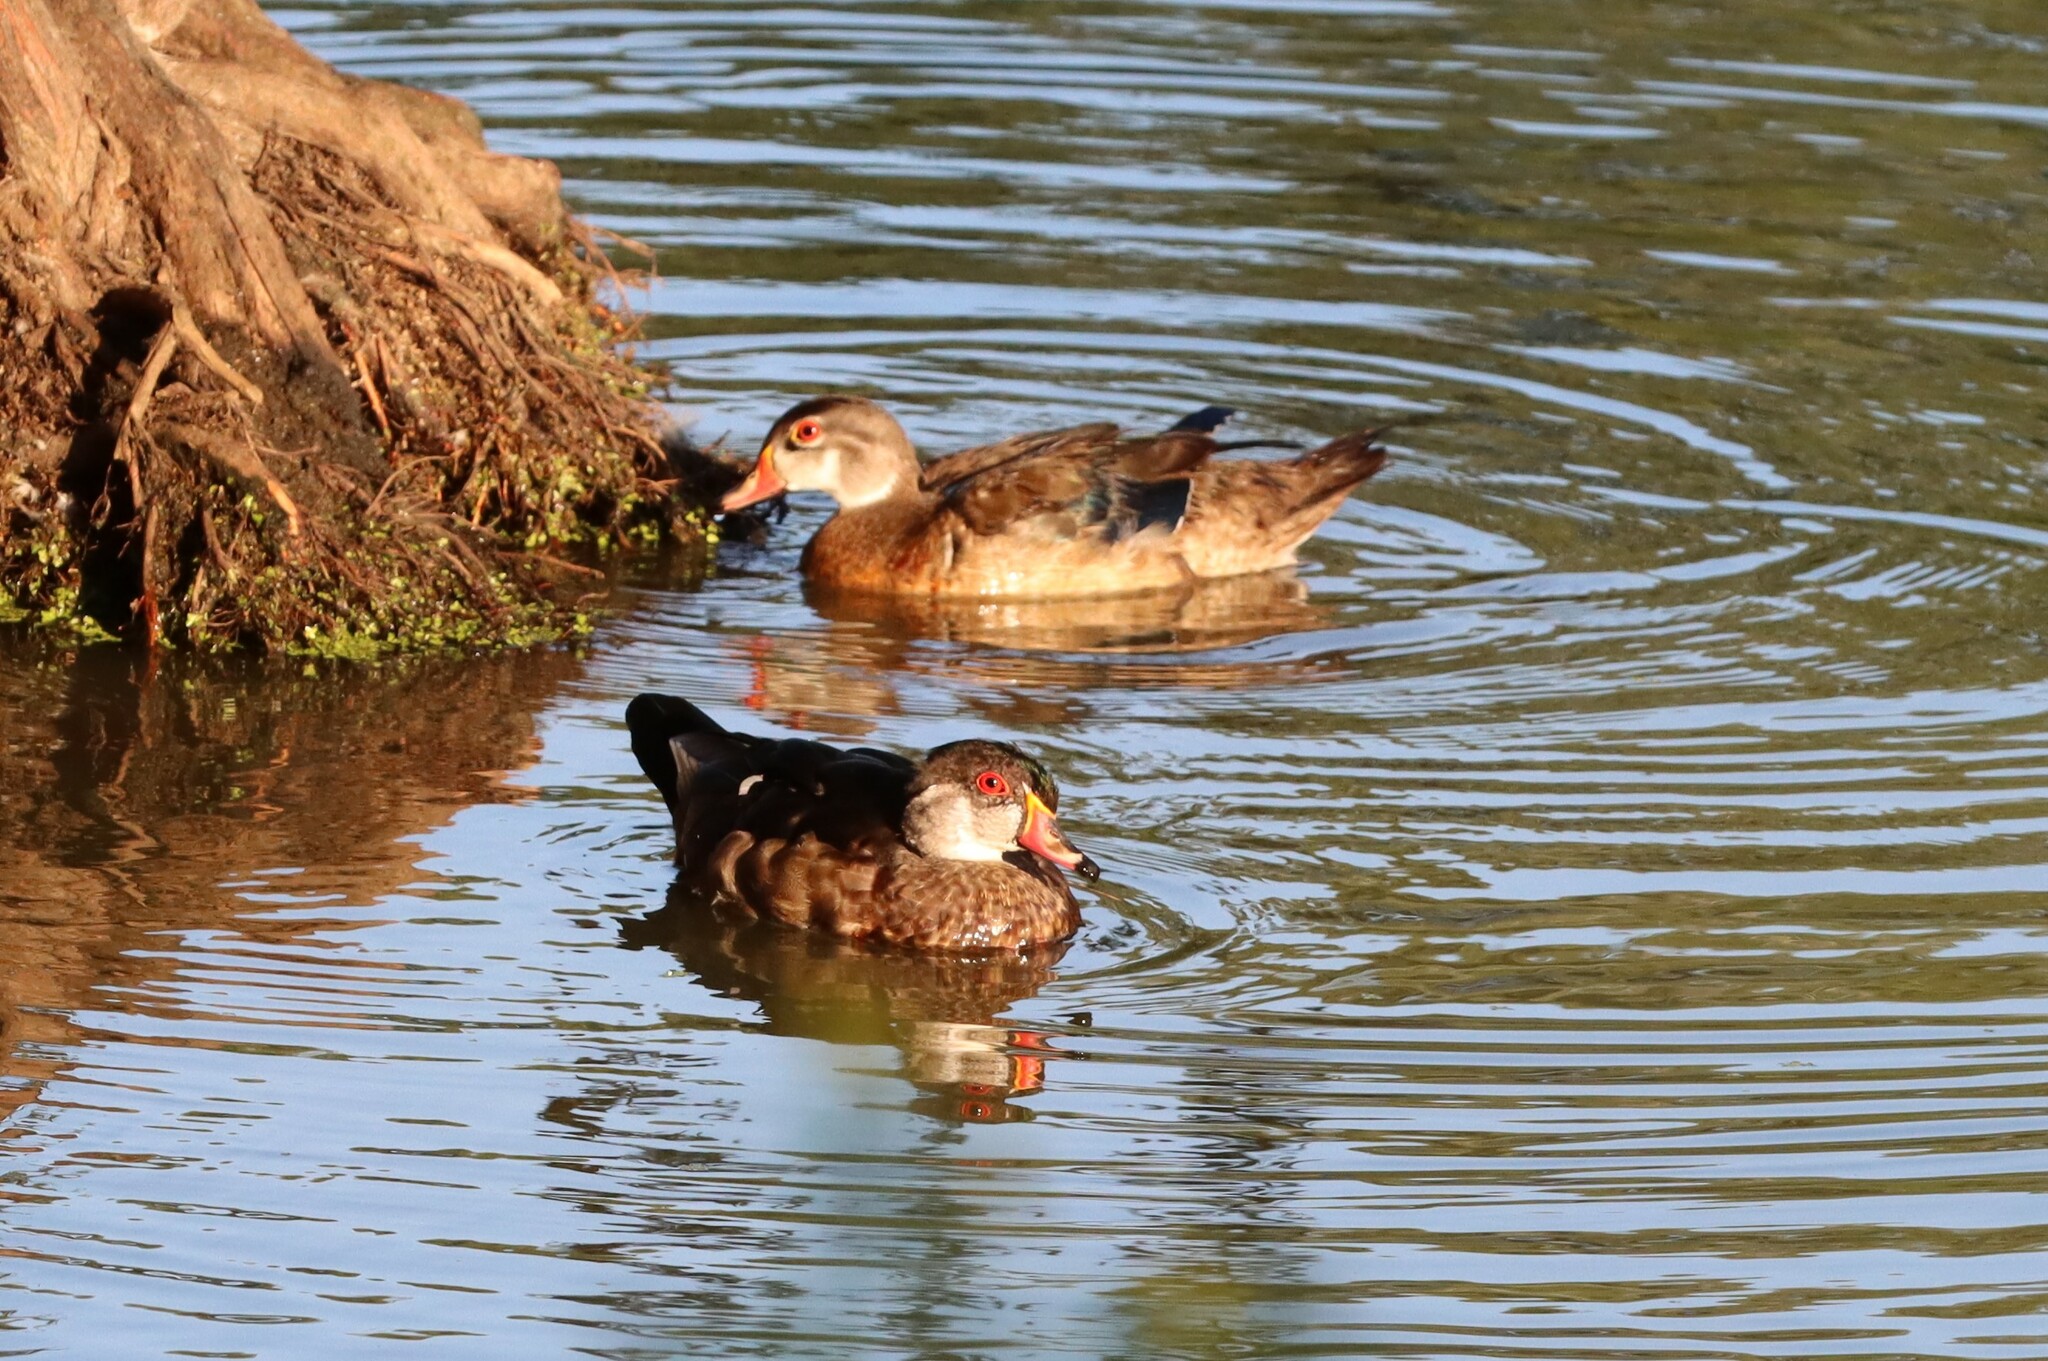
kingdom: Animalia
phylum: Chordata
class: Aves
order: Anseriformes
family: Anatidae
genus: Aix
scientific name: Aix sponsa
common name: Wood duck
